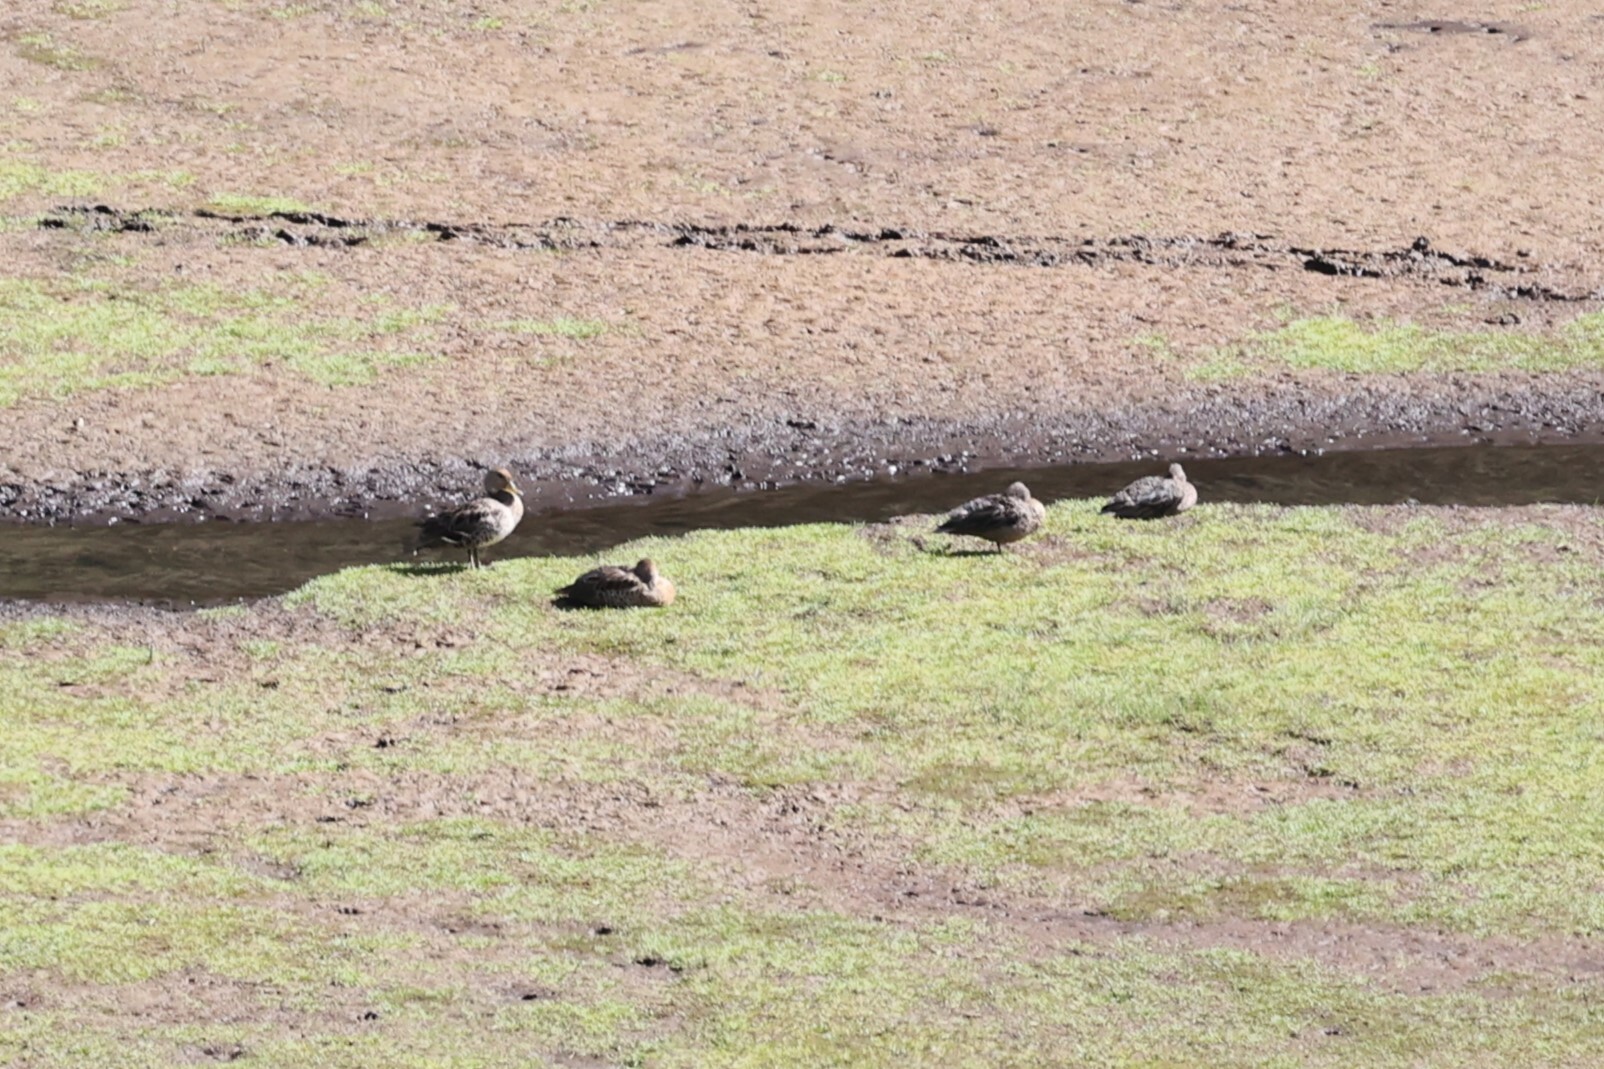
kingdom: Animalia
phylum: Chordata
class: Aves
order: Anseriformes
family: Anatidae
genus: Anas
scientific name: Anas andium
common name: Andean teal
